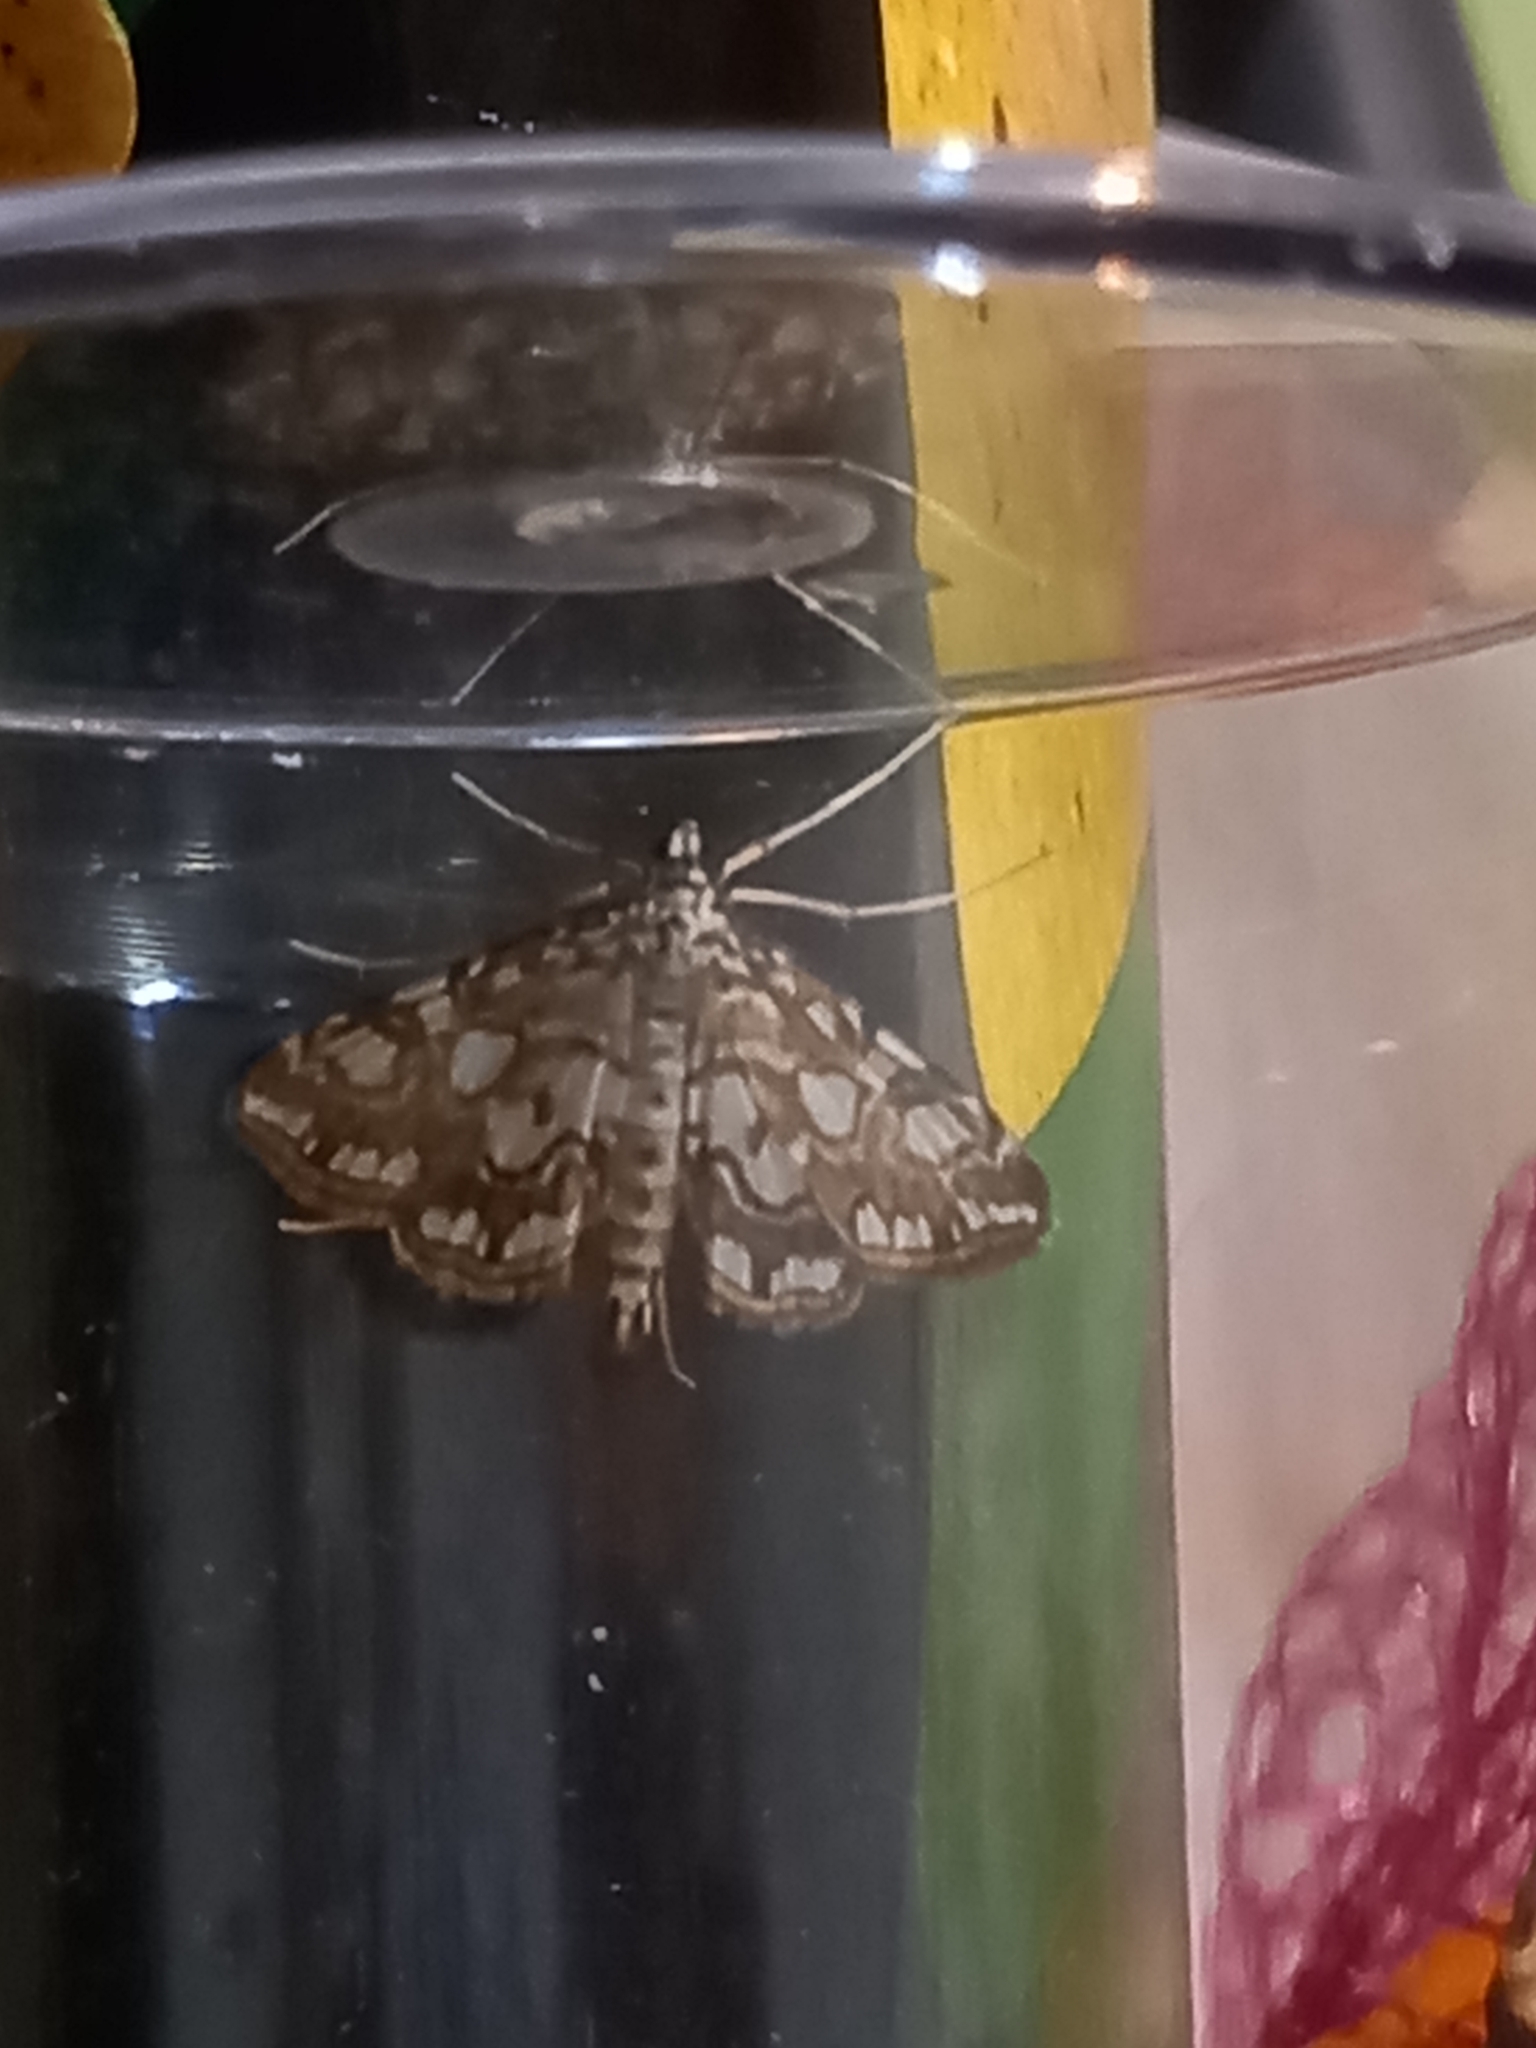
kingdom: Animalia
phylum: Arthropoda
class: Insecta
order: Lepidoptera
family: Crambidae
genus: Elophila
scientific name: Elophila nymphaeata
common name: Brown china-mark
